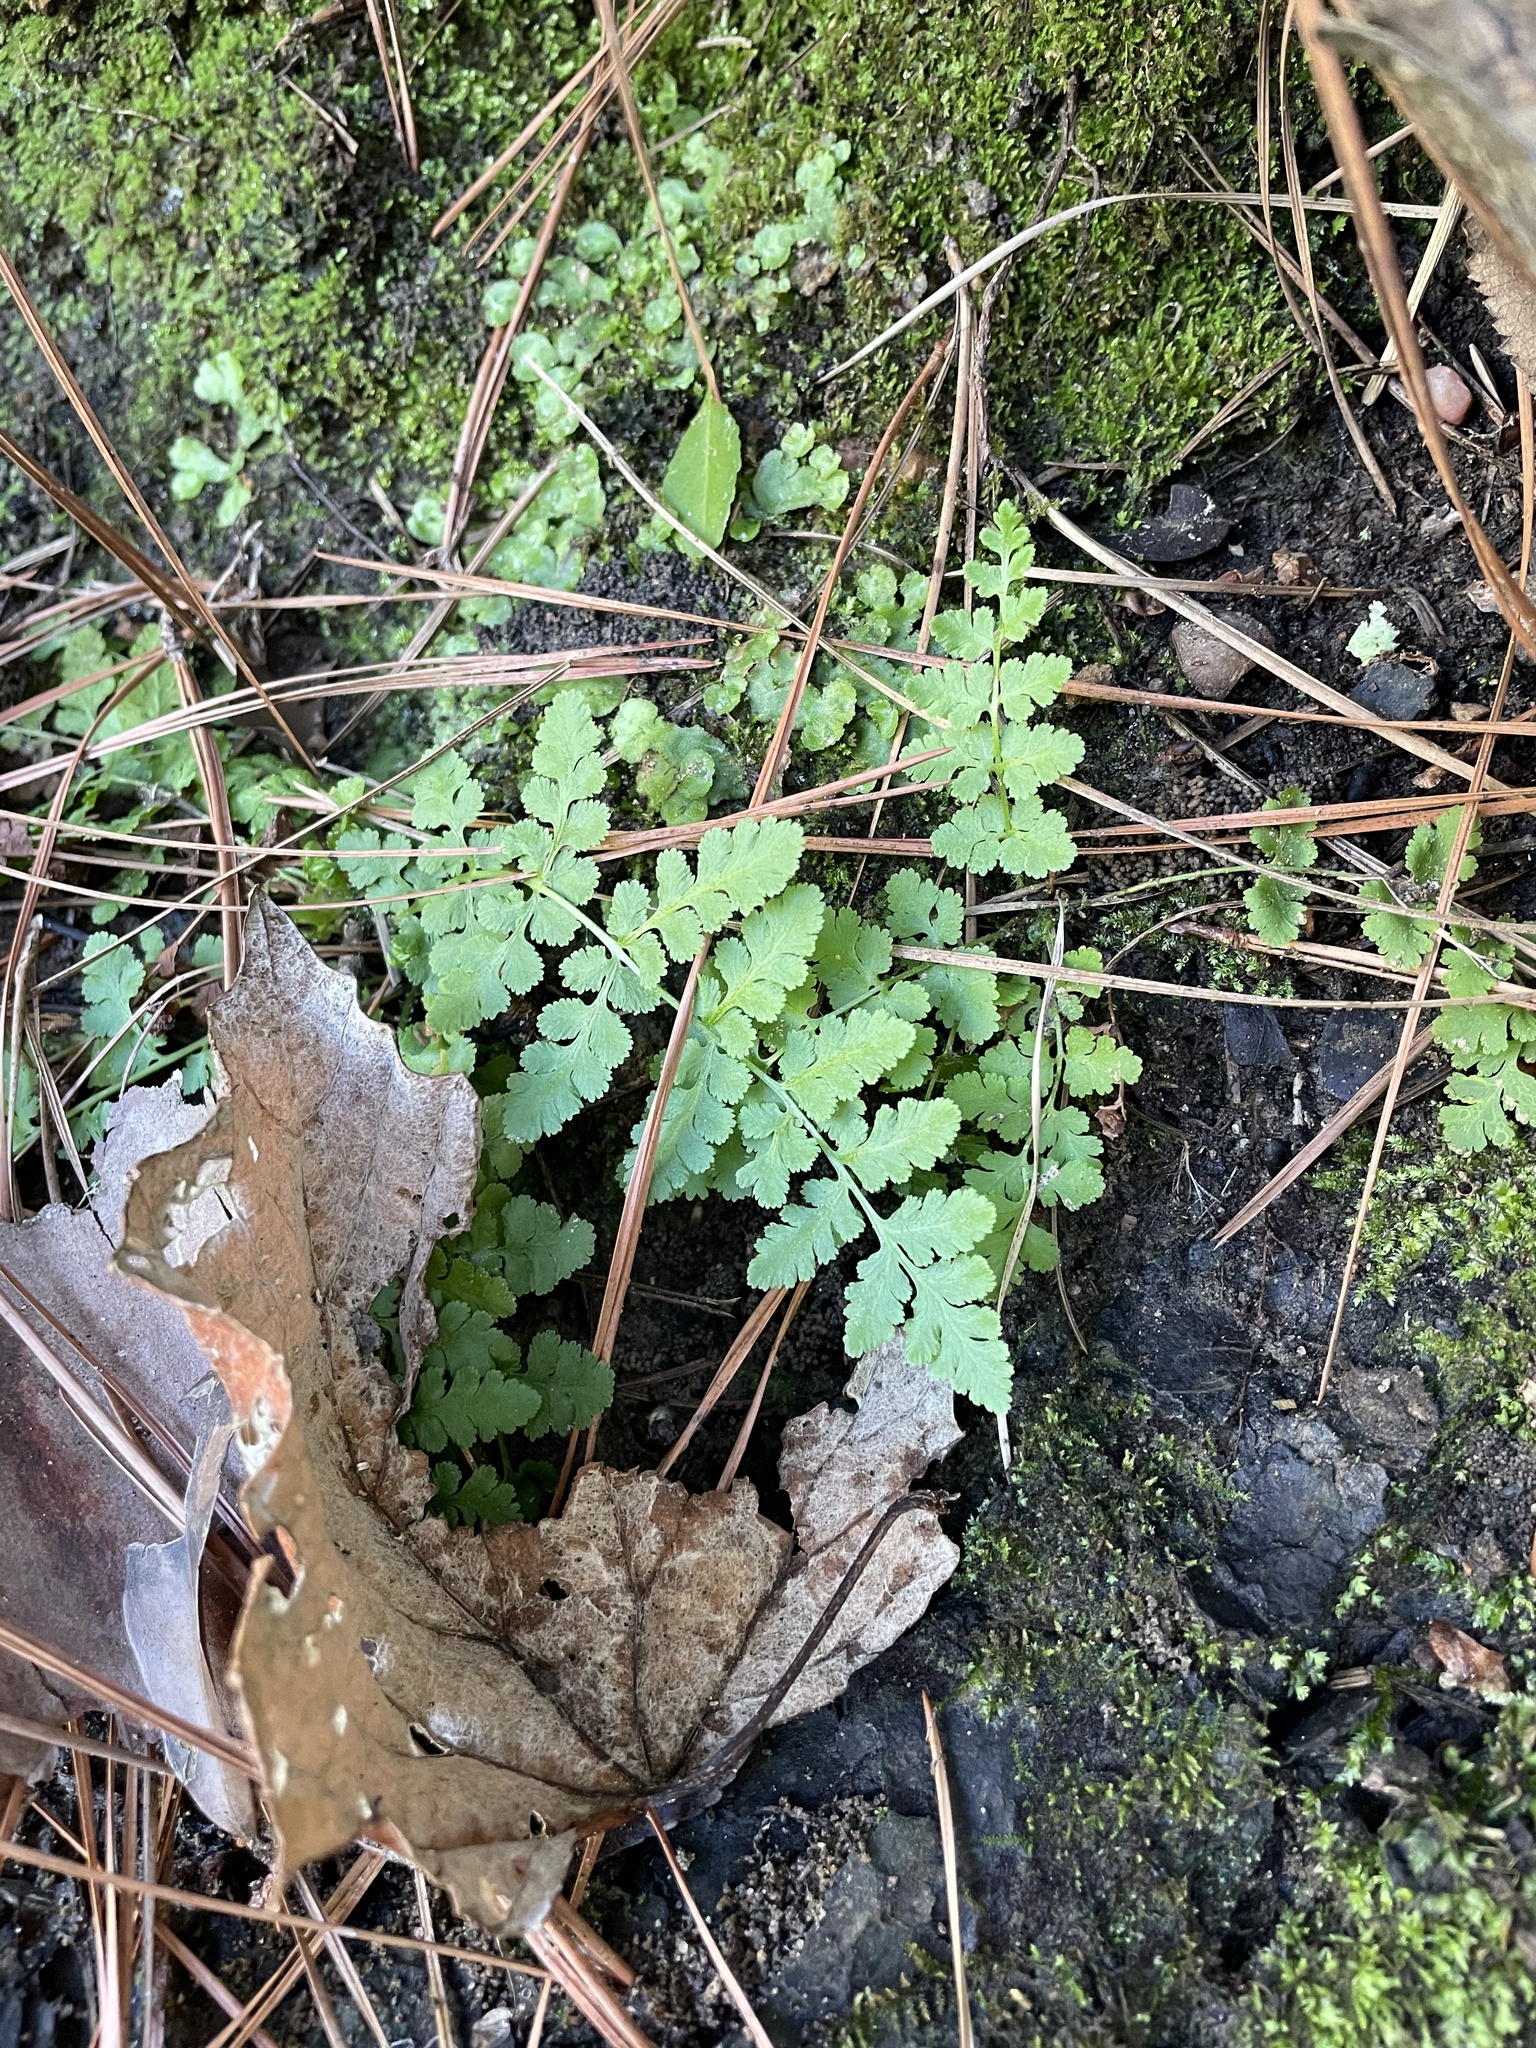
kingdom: Plantae
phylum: Tracheophyta
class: Polypodiopsida
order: Polypodiales
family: Woodsiaceae
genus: Physematium
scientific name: Physematium obtusum
